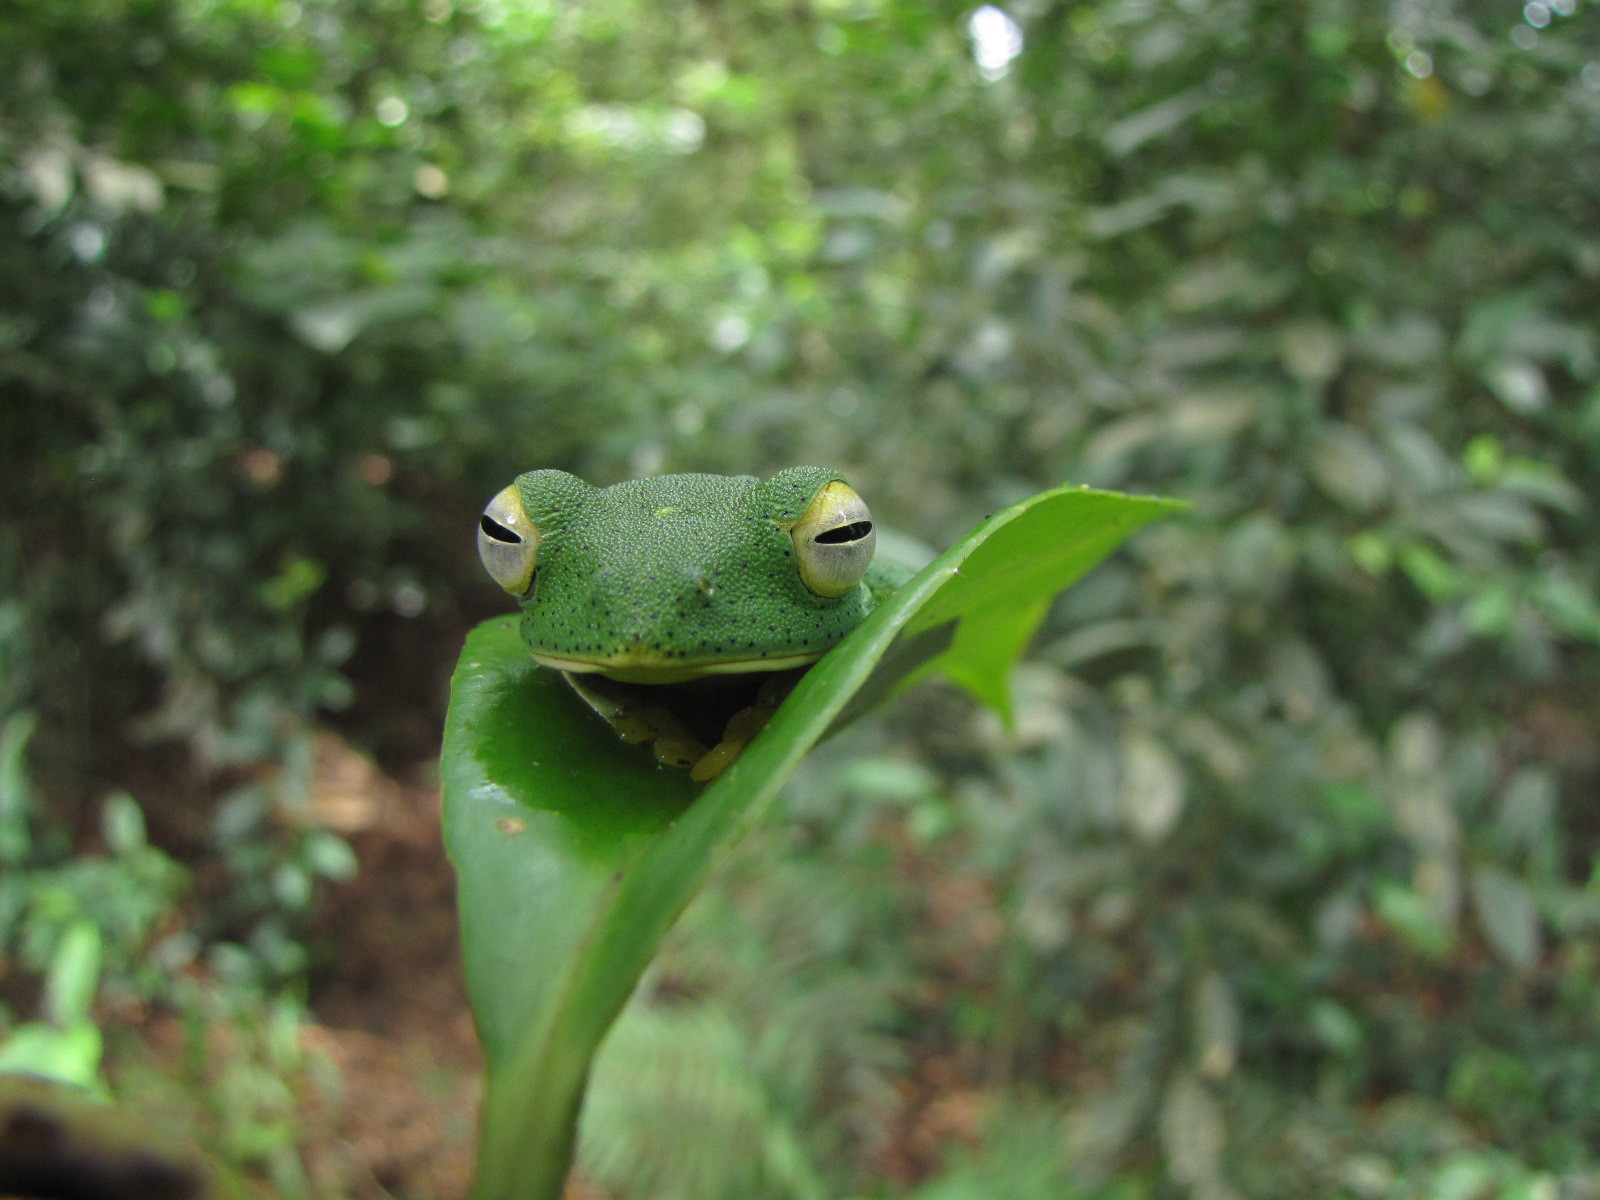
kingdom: Animalia
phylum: Chordata
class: Amphibia
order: Anura
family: Rhacophoridae
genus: Rhacophorus
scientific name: Rhacophorus malabaricus
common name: Malabar gliding frog
